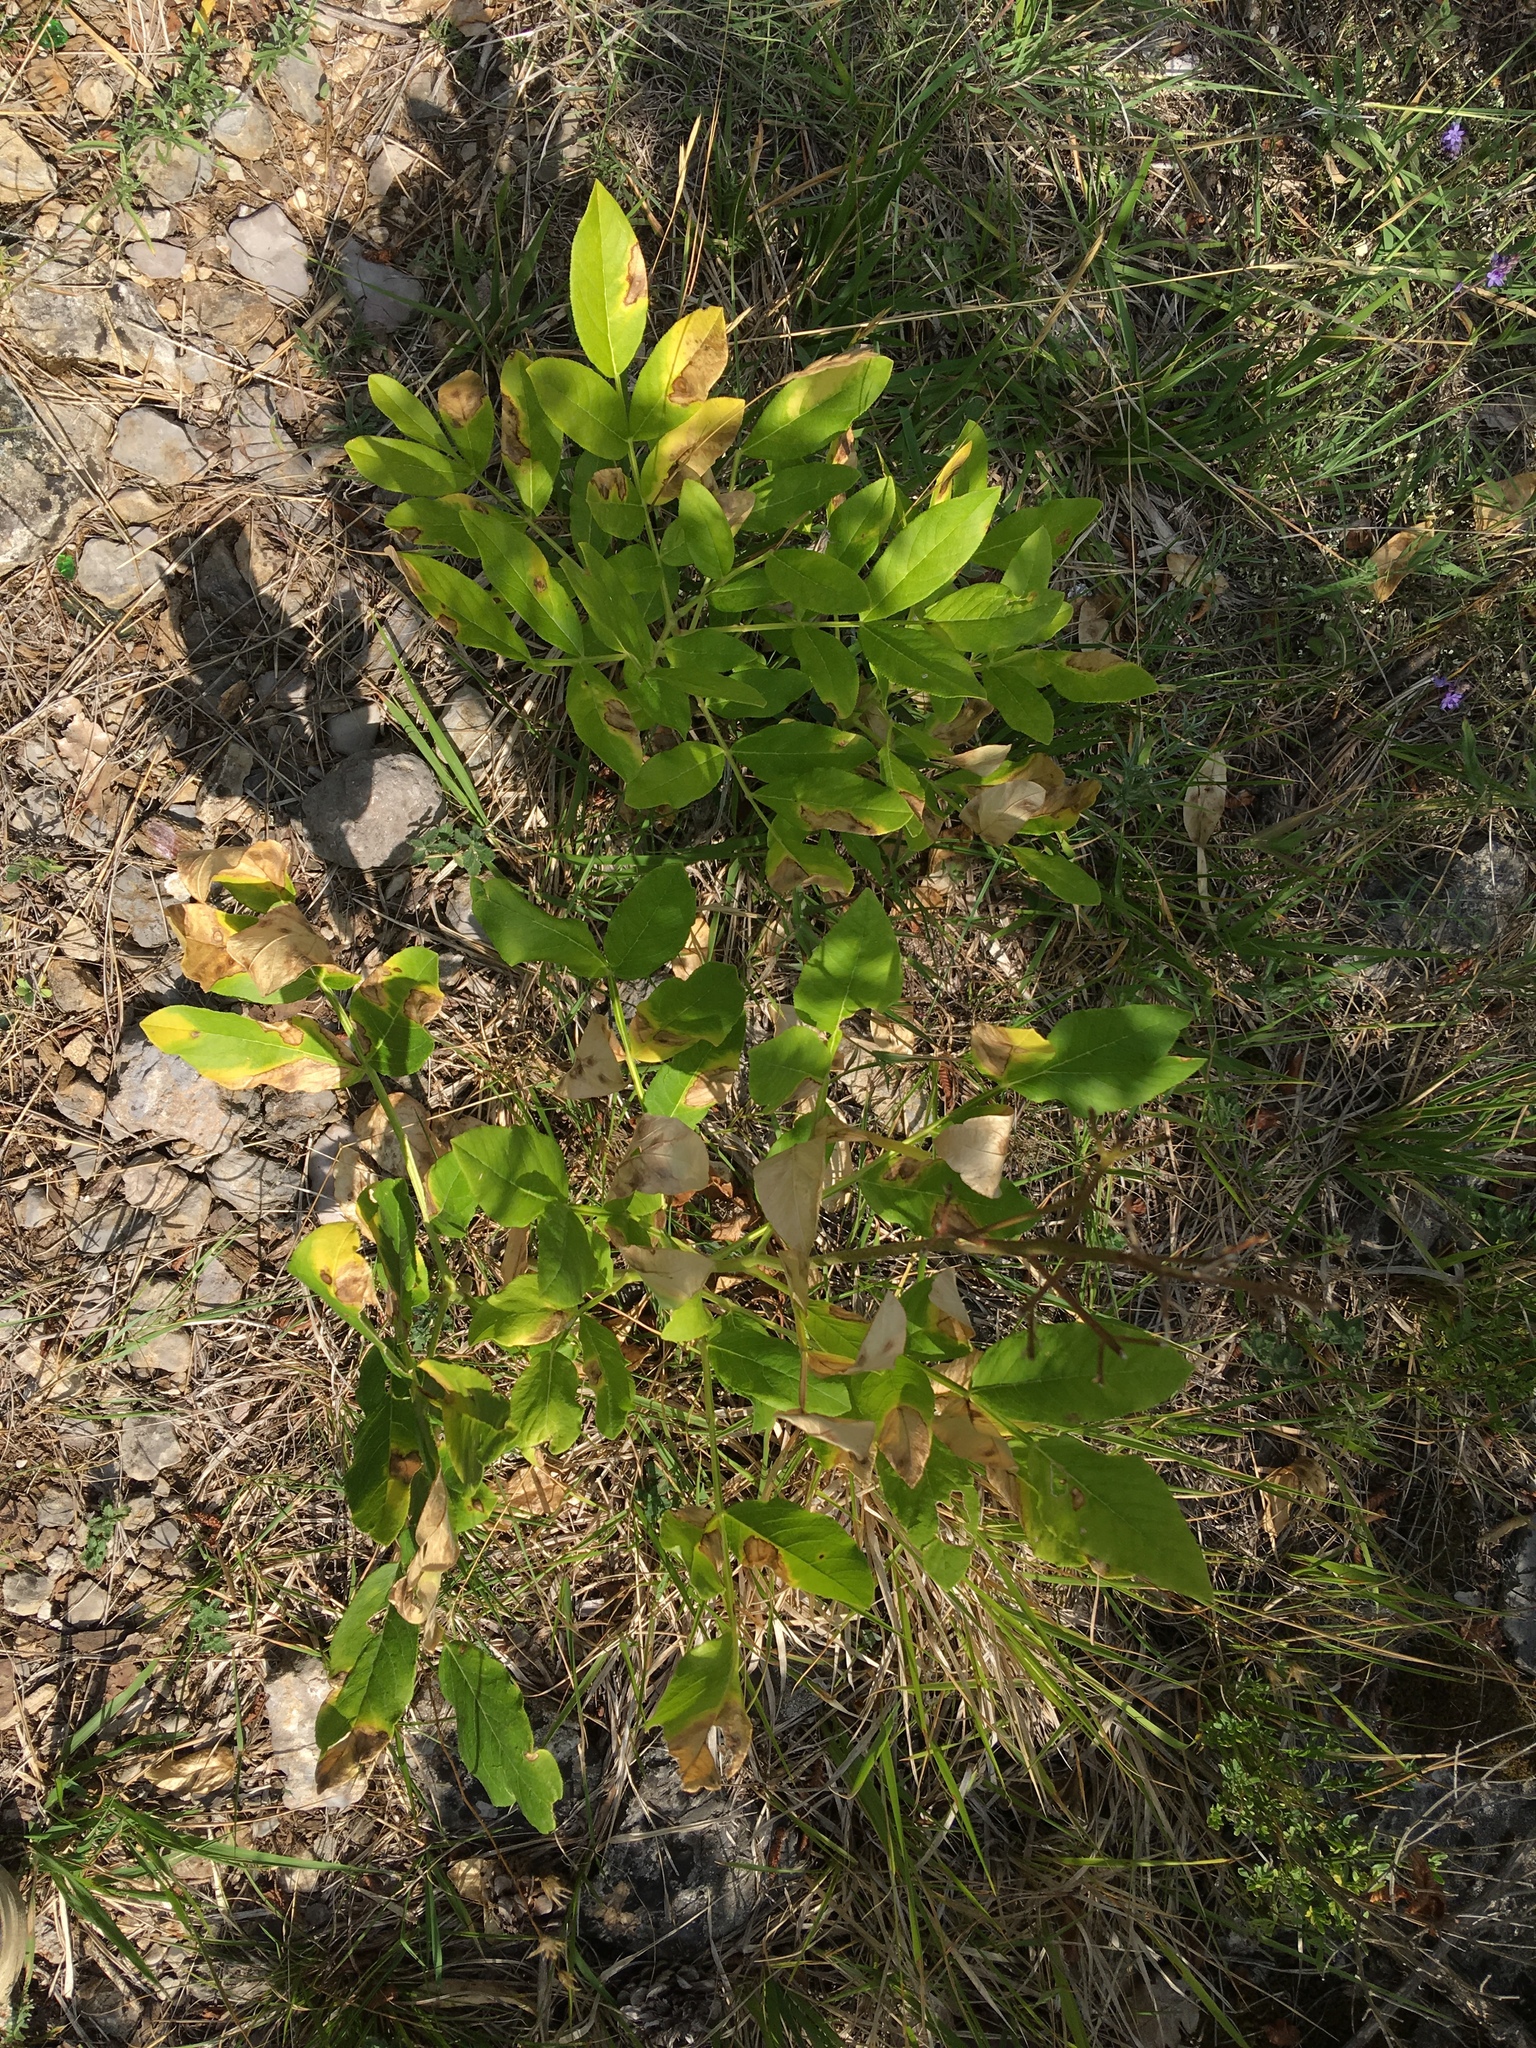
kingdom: Plantae
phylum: Tracheophyta
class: Magnoliopsida
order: Sapindales
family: Rutaceae
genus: Dictamnus
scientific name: Dictamnus albus
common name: Gasplant
